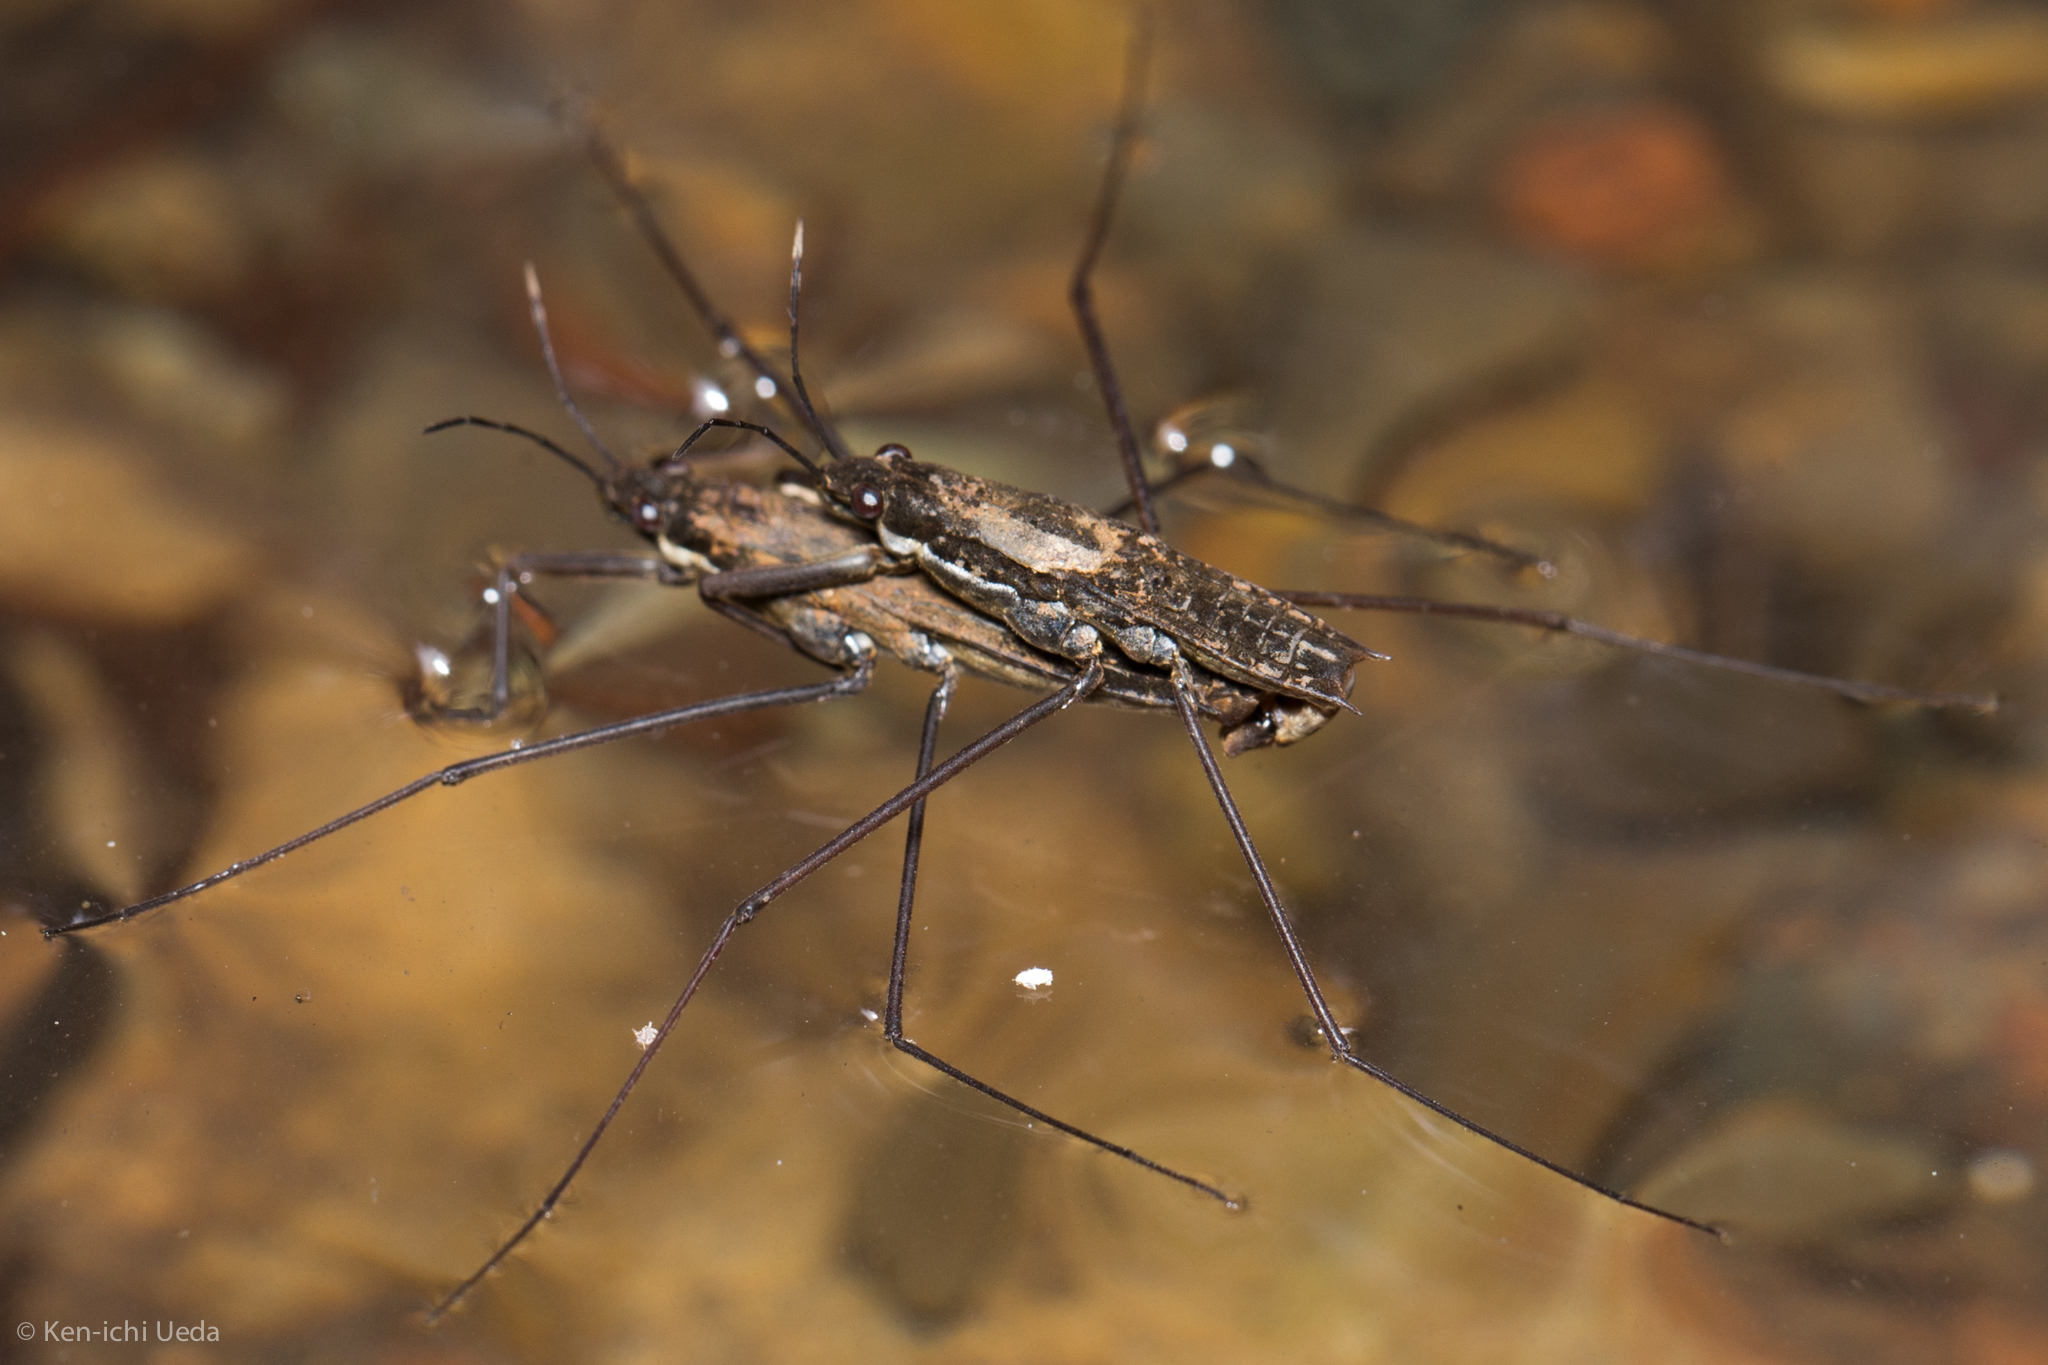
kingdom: Animalia
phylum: Arthropoda
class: Insecta
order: Hemiptera
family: Gerridae
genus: Aquarius
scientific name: Aquarius remigis
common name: Common water strider
